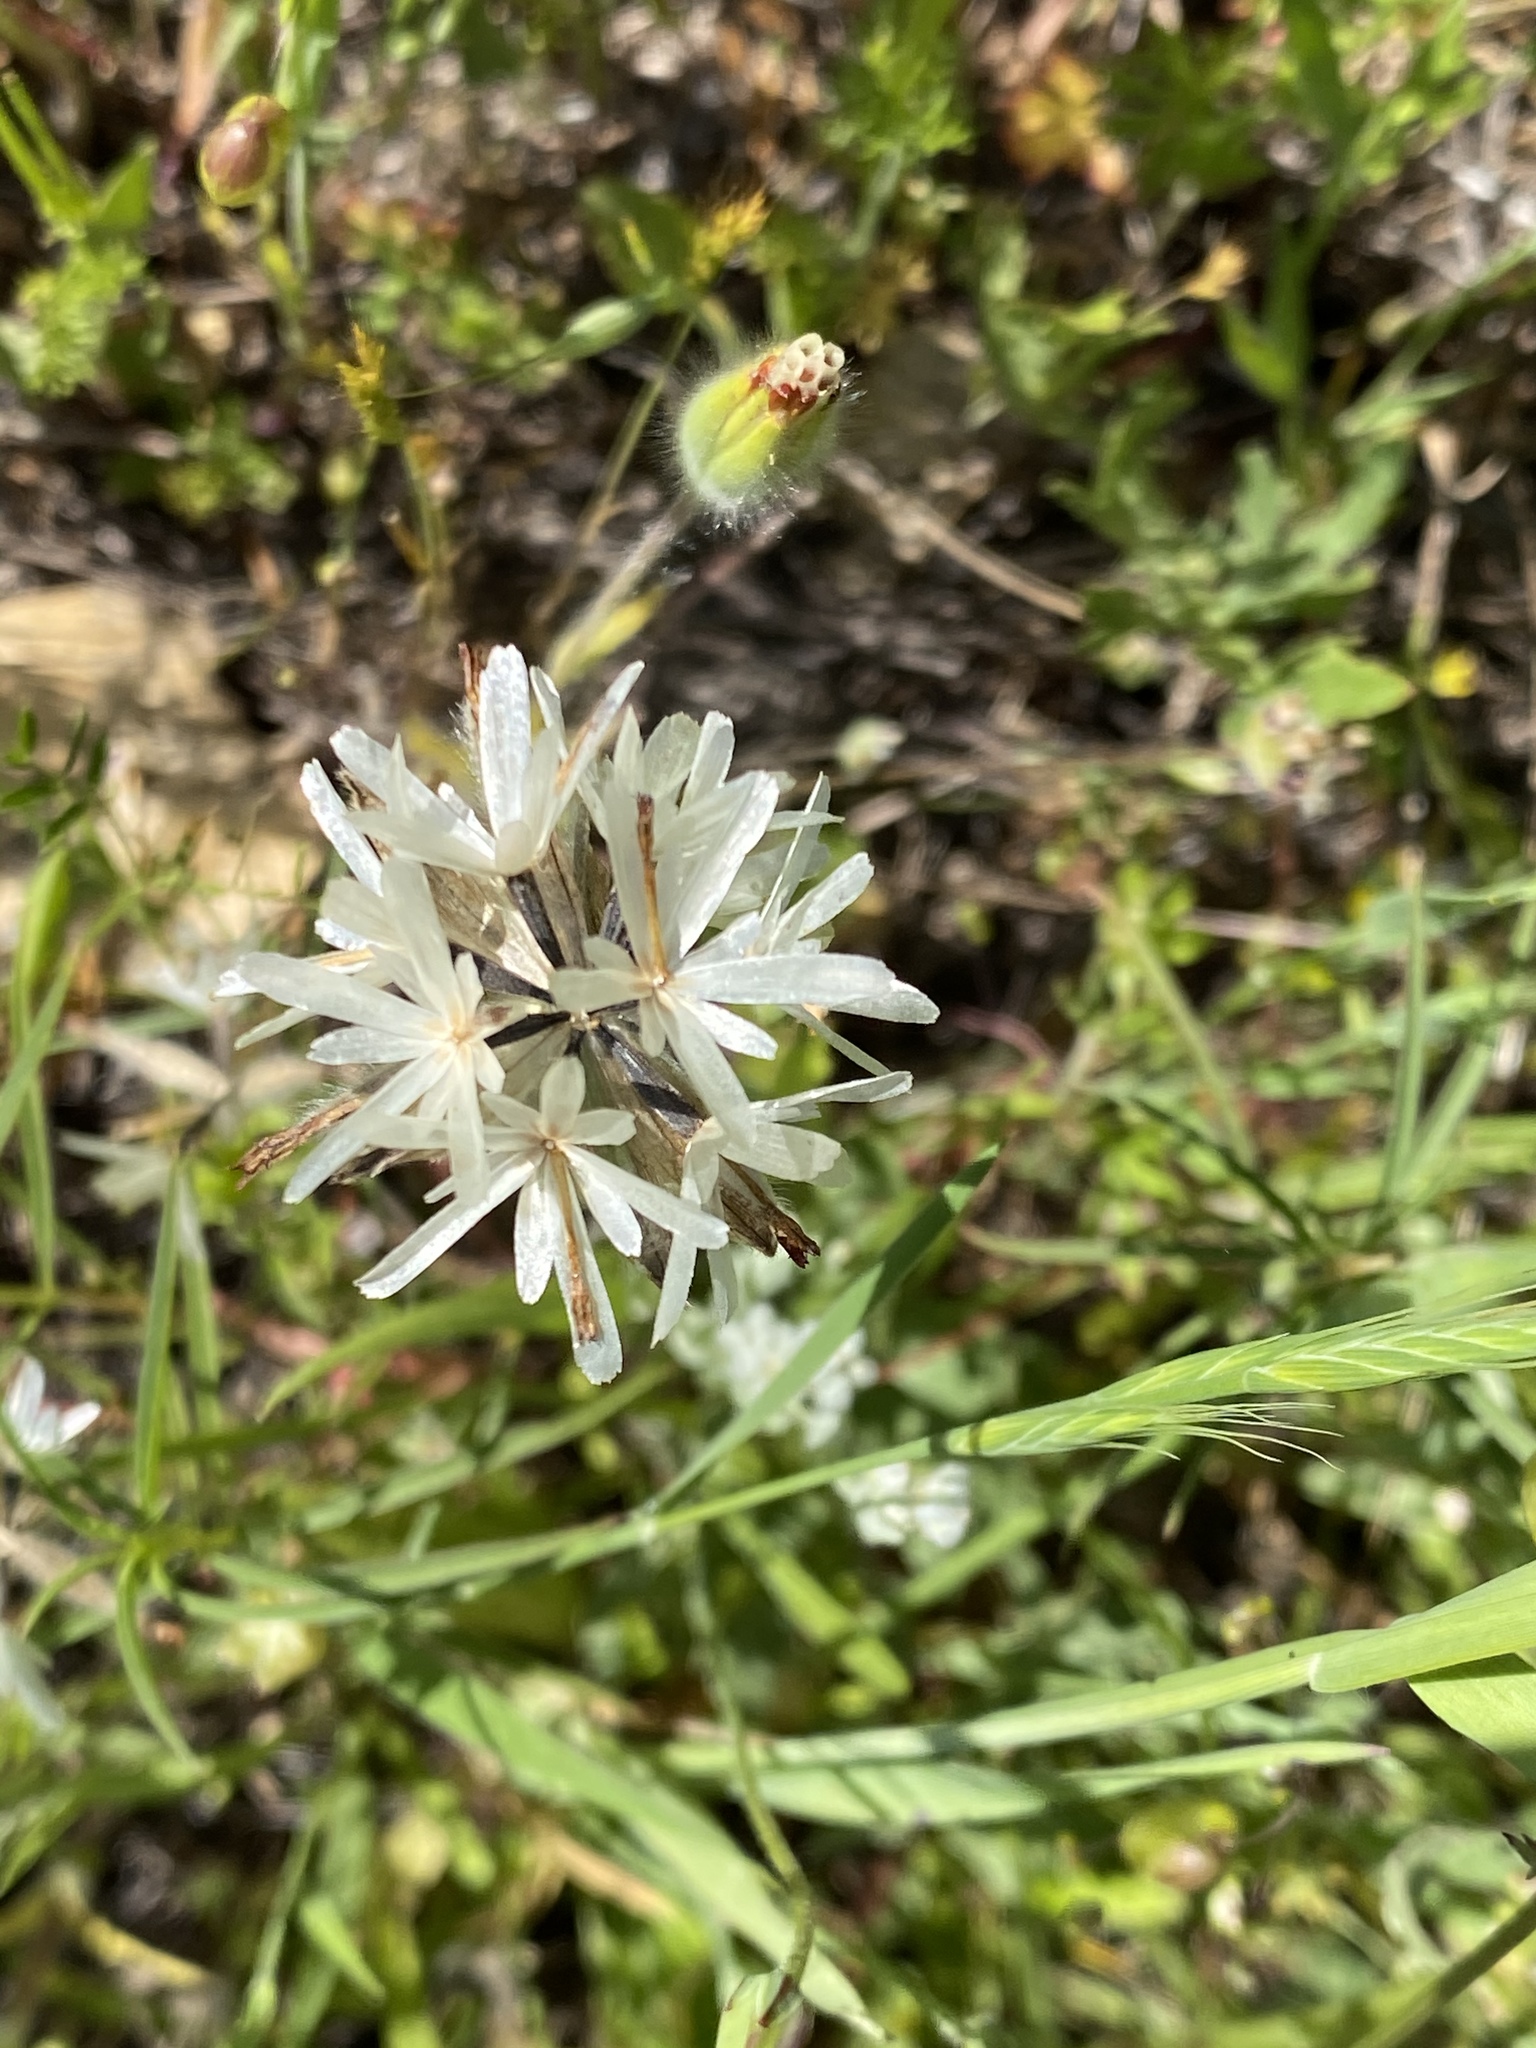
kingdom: Plantae
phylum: Tracheophyta
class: Magnoliopsida
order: Asterales
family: Asteraceae
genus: Achyrachaena
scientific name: Achyrachaena mollis
